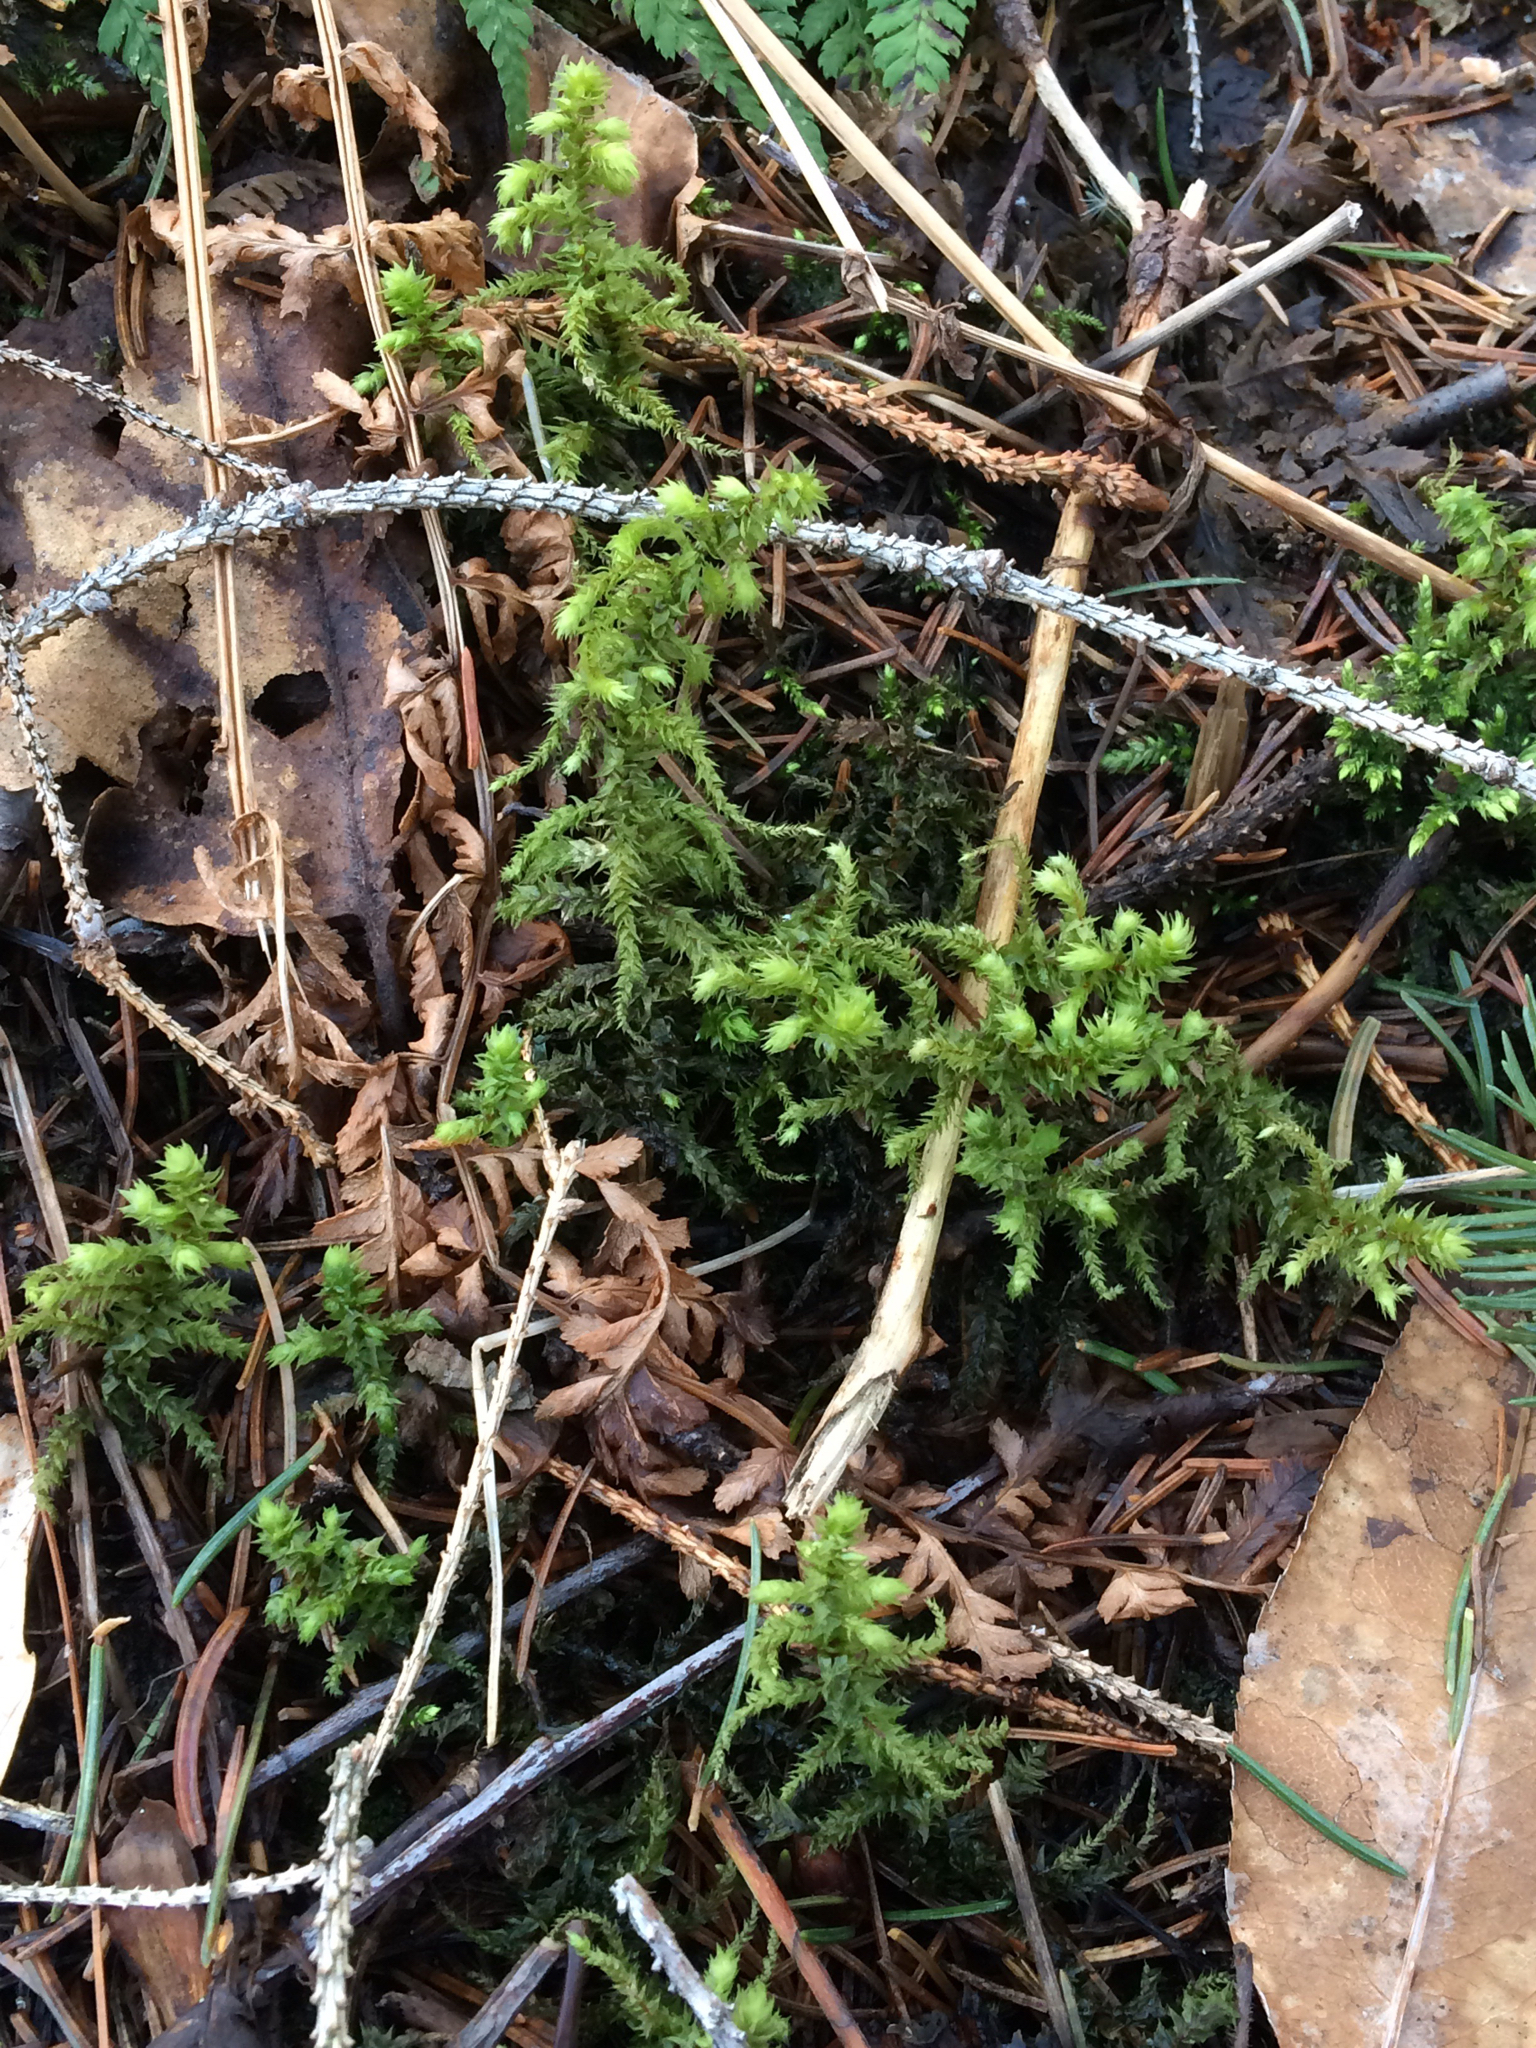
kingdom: Plantae
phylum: Bryophyta
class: Bryopsida
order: Hypnales
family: Hylocomiaceae
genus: Hylocomiadelphus
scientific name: Hylocomiadelphus triquetrus
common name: Rough goose neck moss
